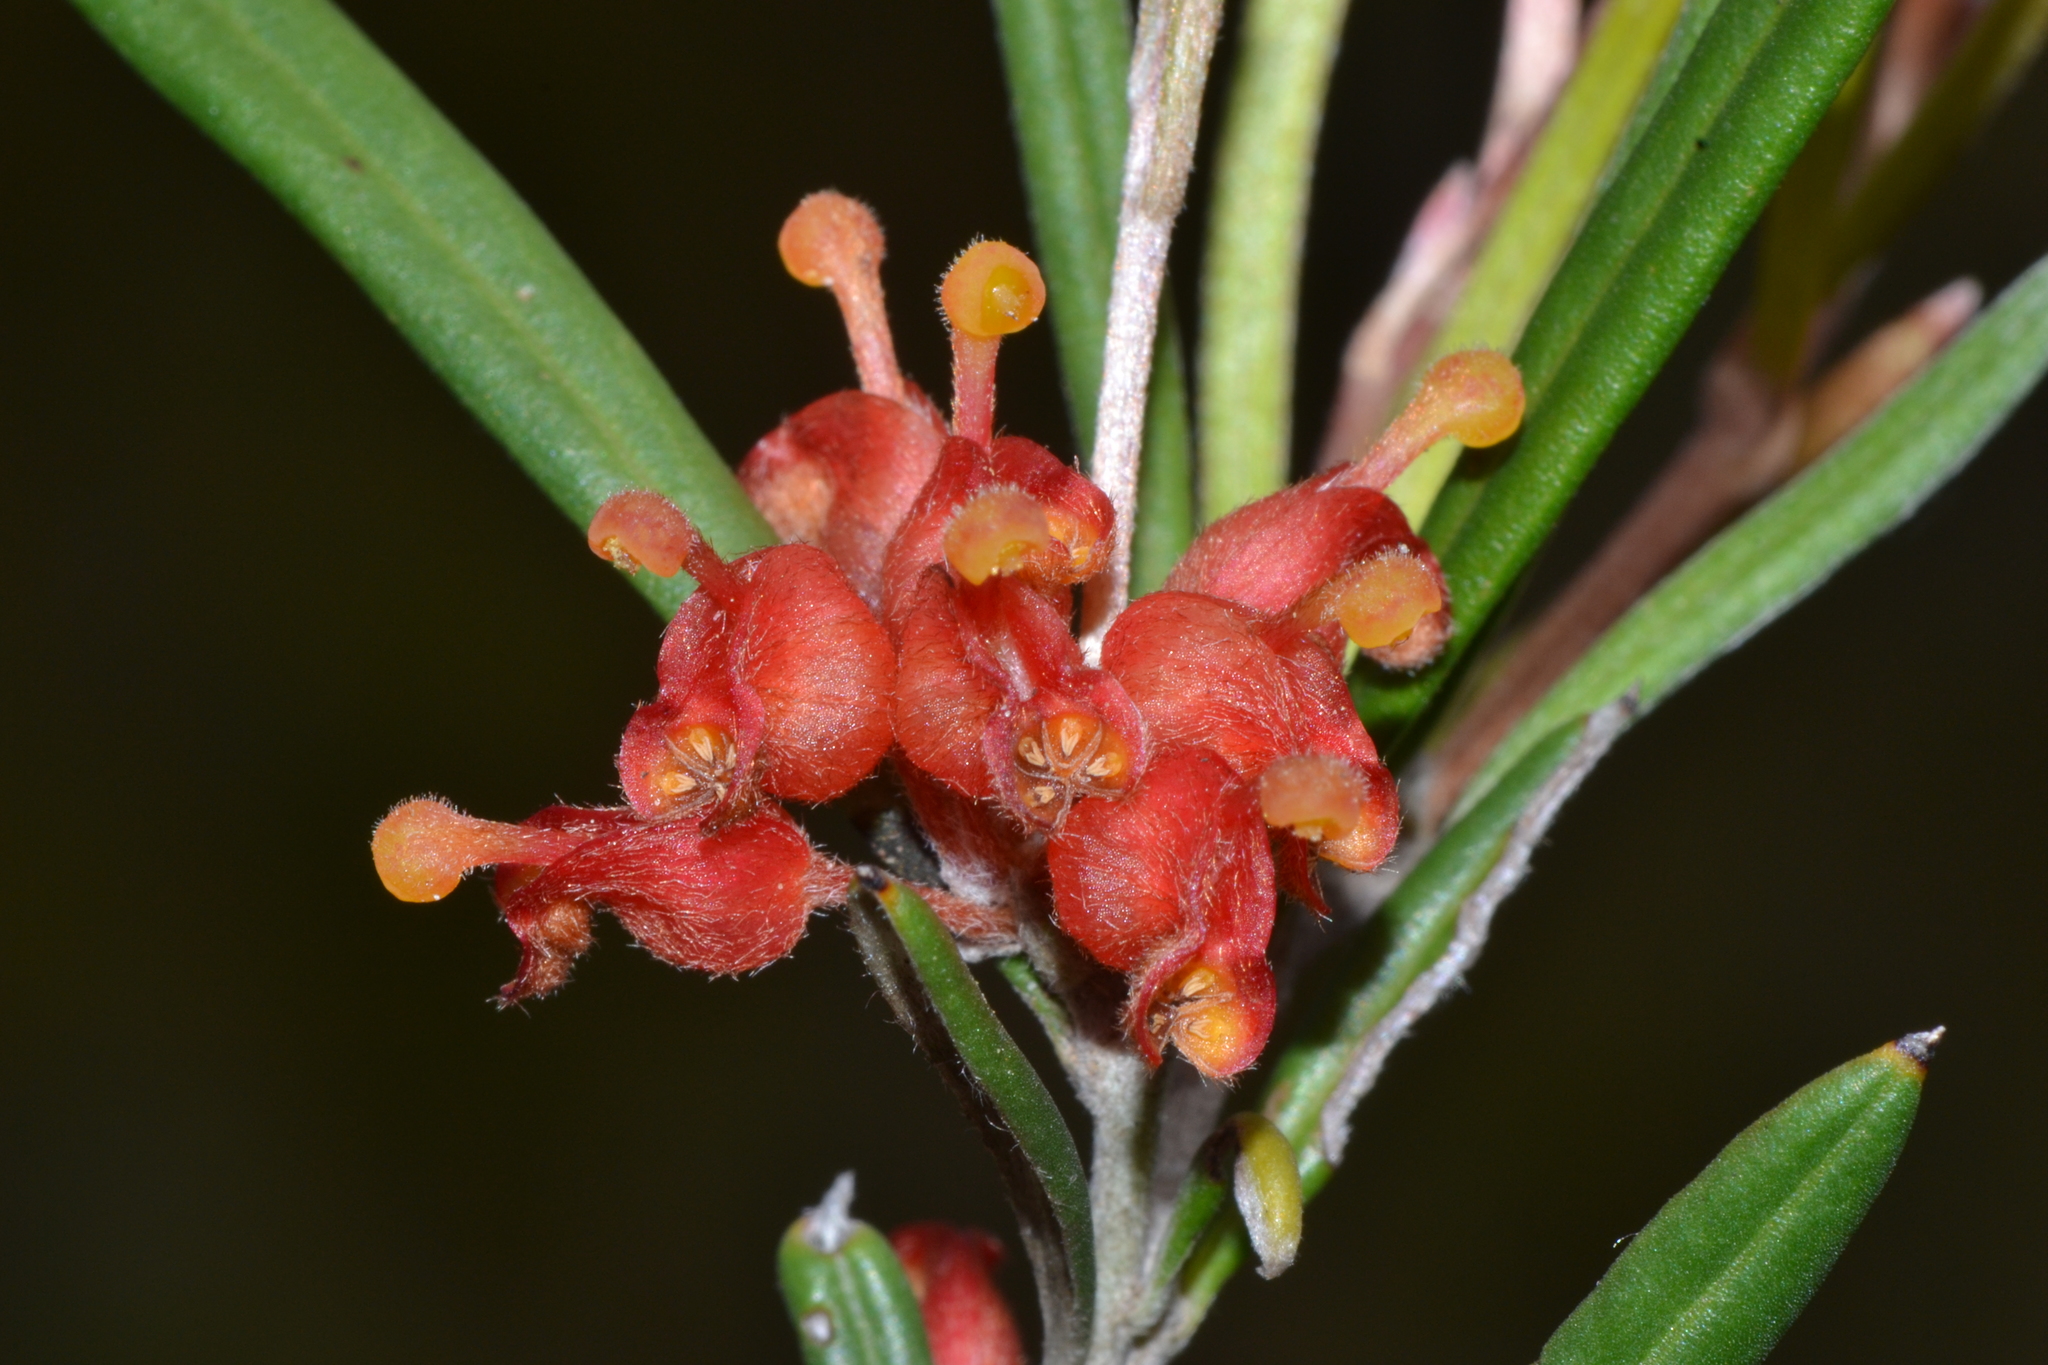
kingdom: Plantae
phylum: Tracheophyta
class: Magnoliopsida
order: Proteales
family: Proteaceae
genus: Grevillea
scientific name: Grevillea fasciculata
